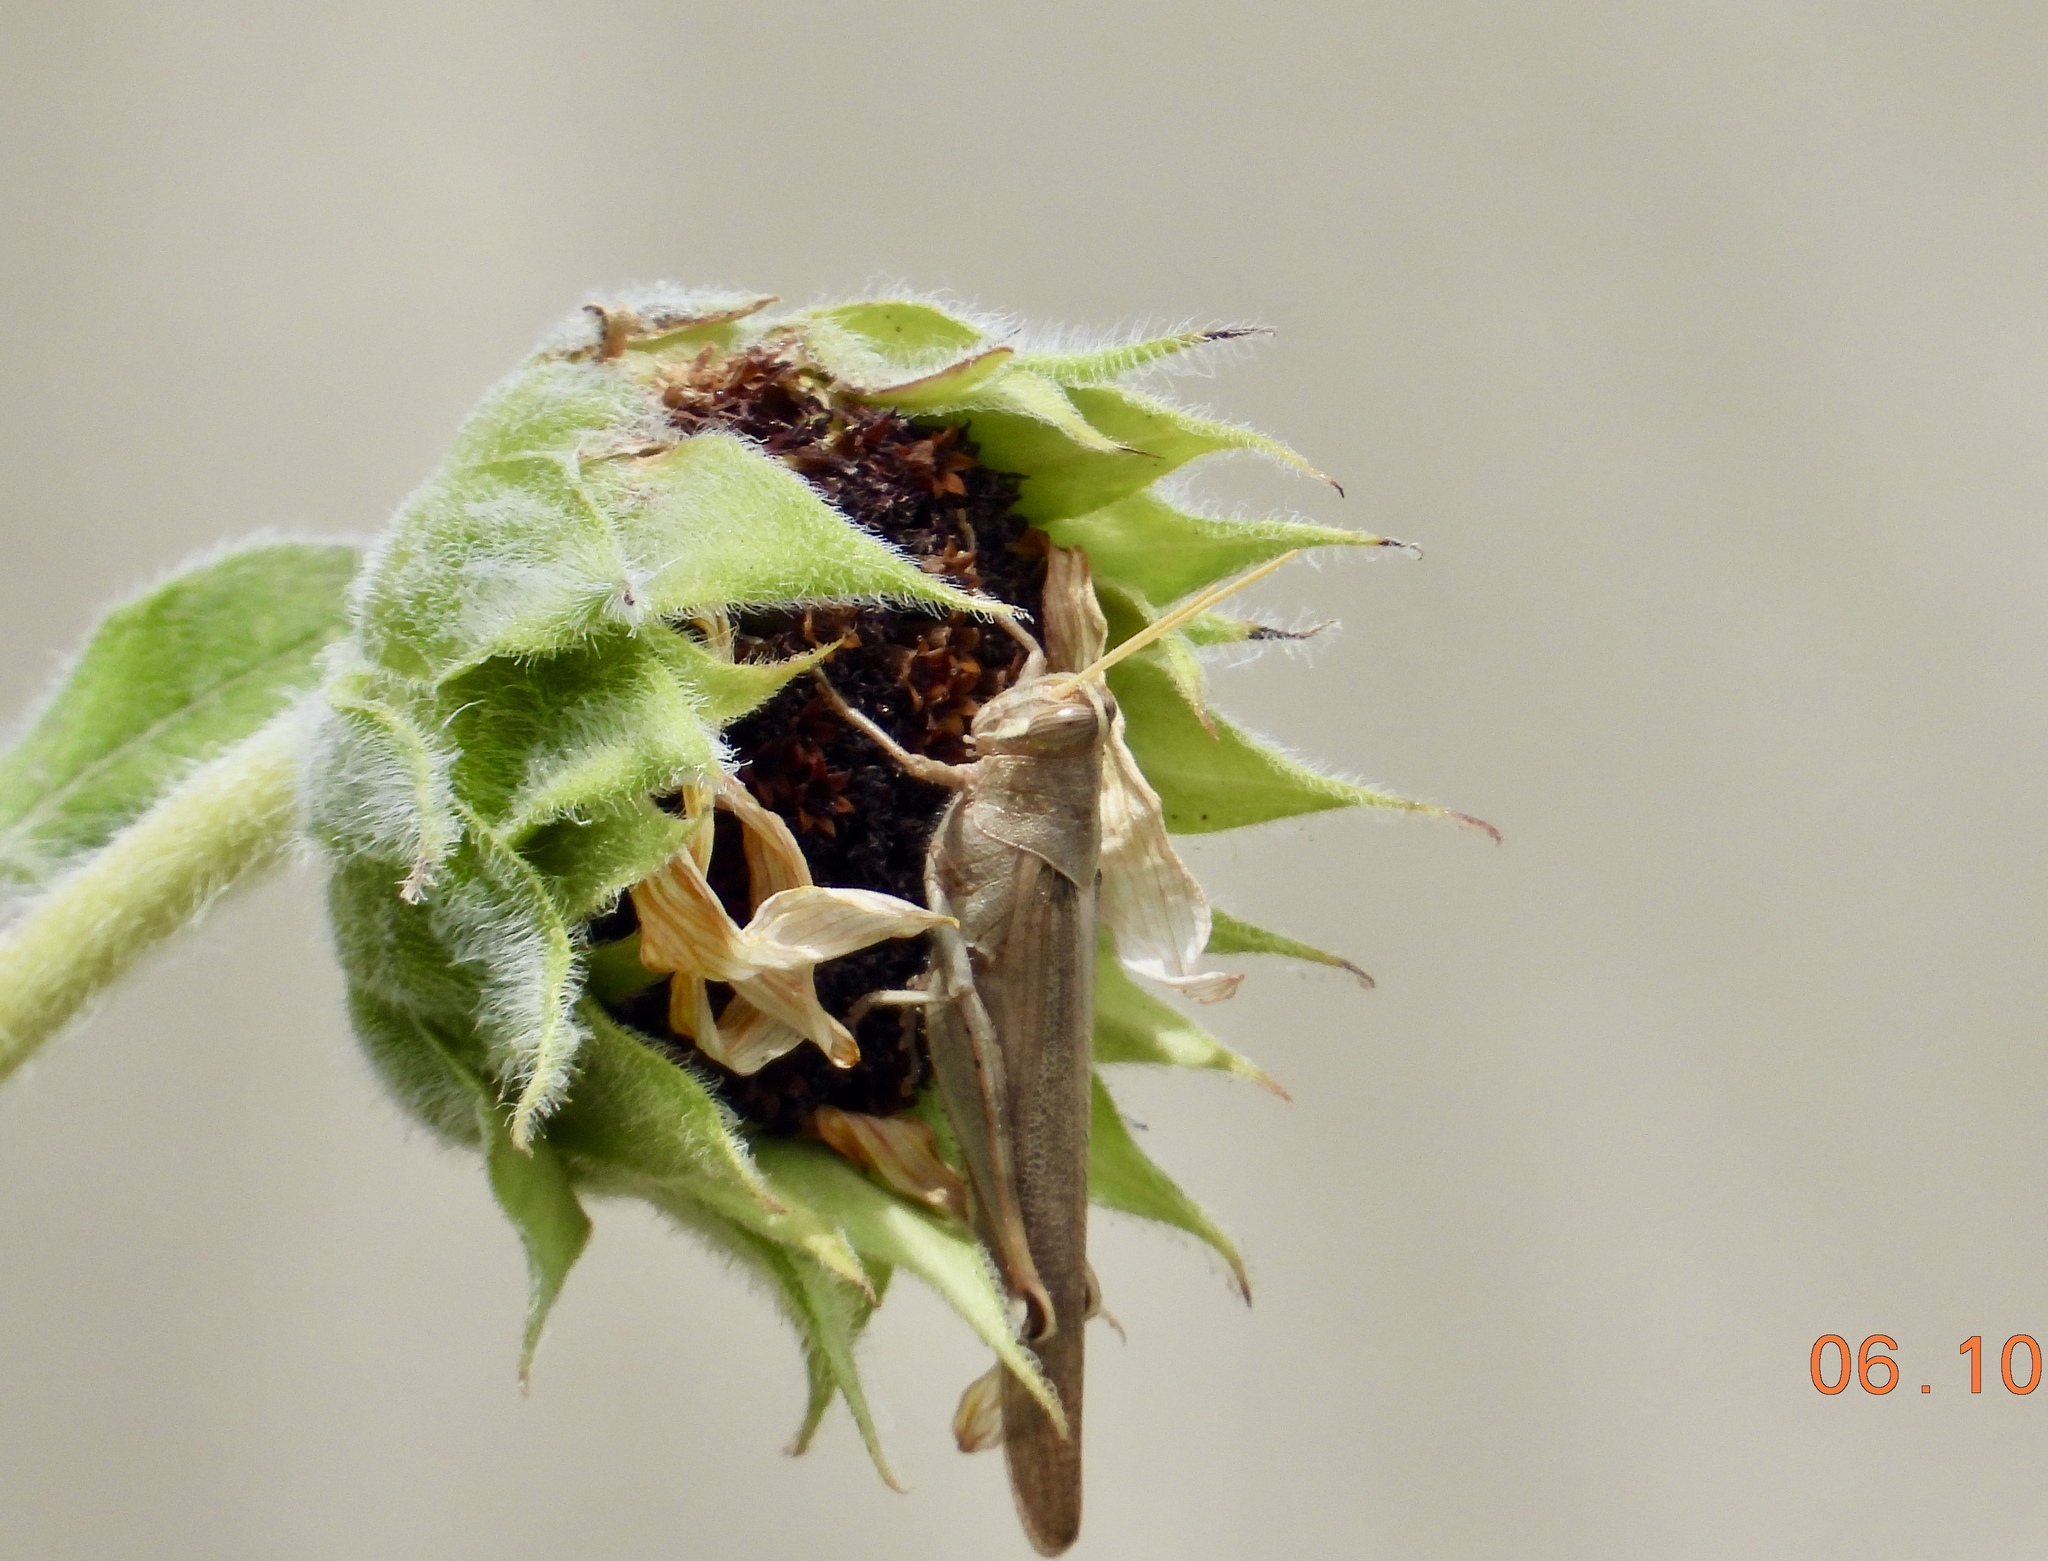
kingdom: Animalia
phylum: Arthropoda
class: Insecta
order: Orthoptera
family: Acrididae
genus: Schistocerca
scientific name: Schistocerca nitens
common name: Vagrant grasshopper
